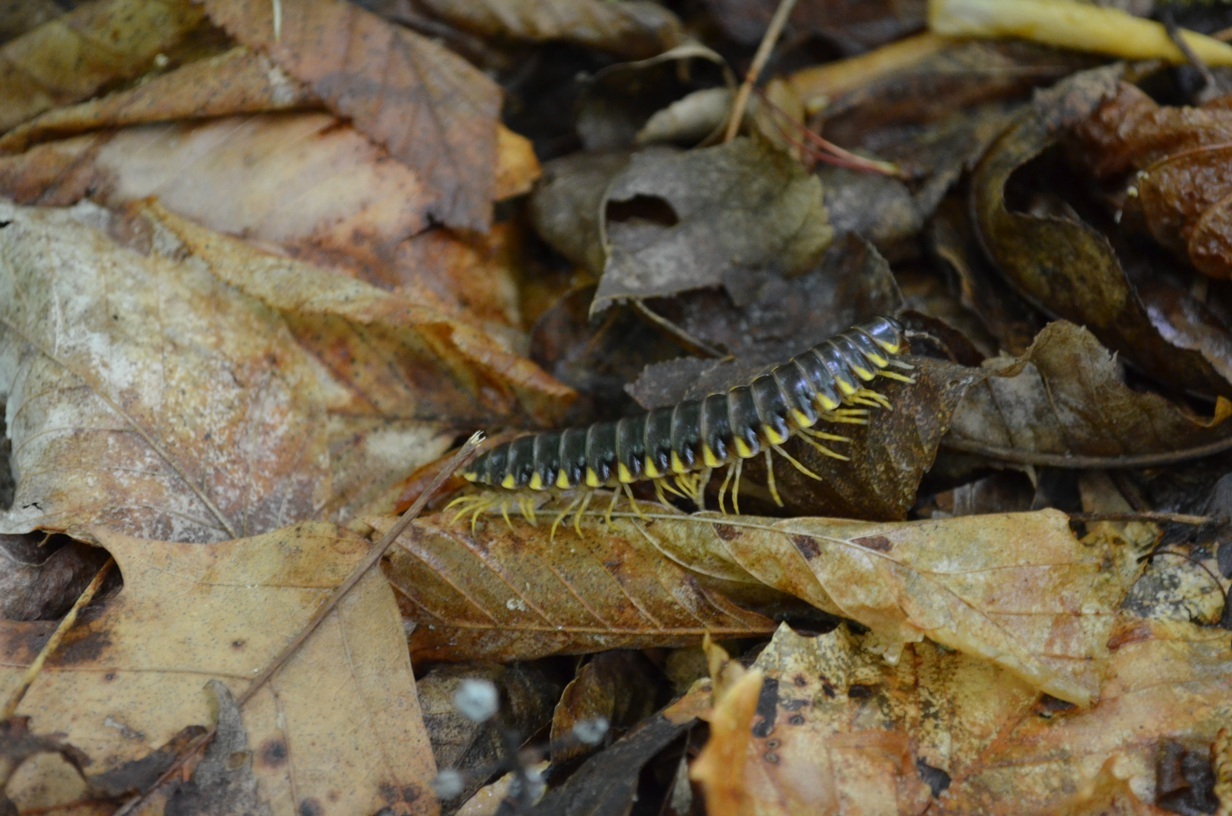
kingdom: Animalia
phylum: Arthropoda
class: Diplopoda
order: Polydesmida
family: Xystodesmidae
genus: Sigmoria
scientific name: Sigmoria latior
